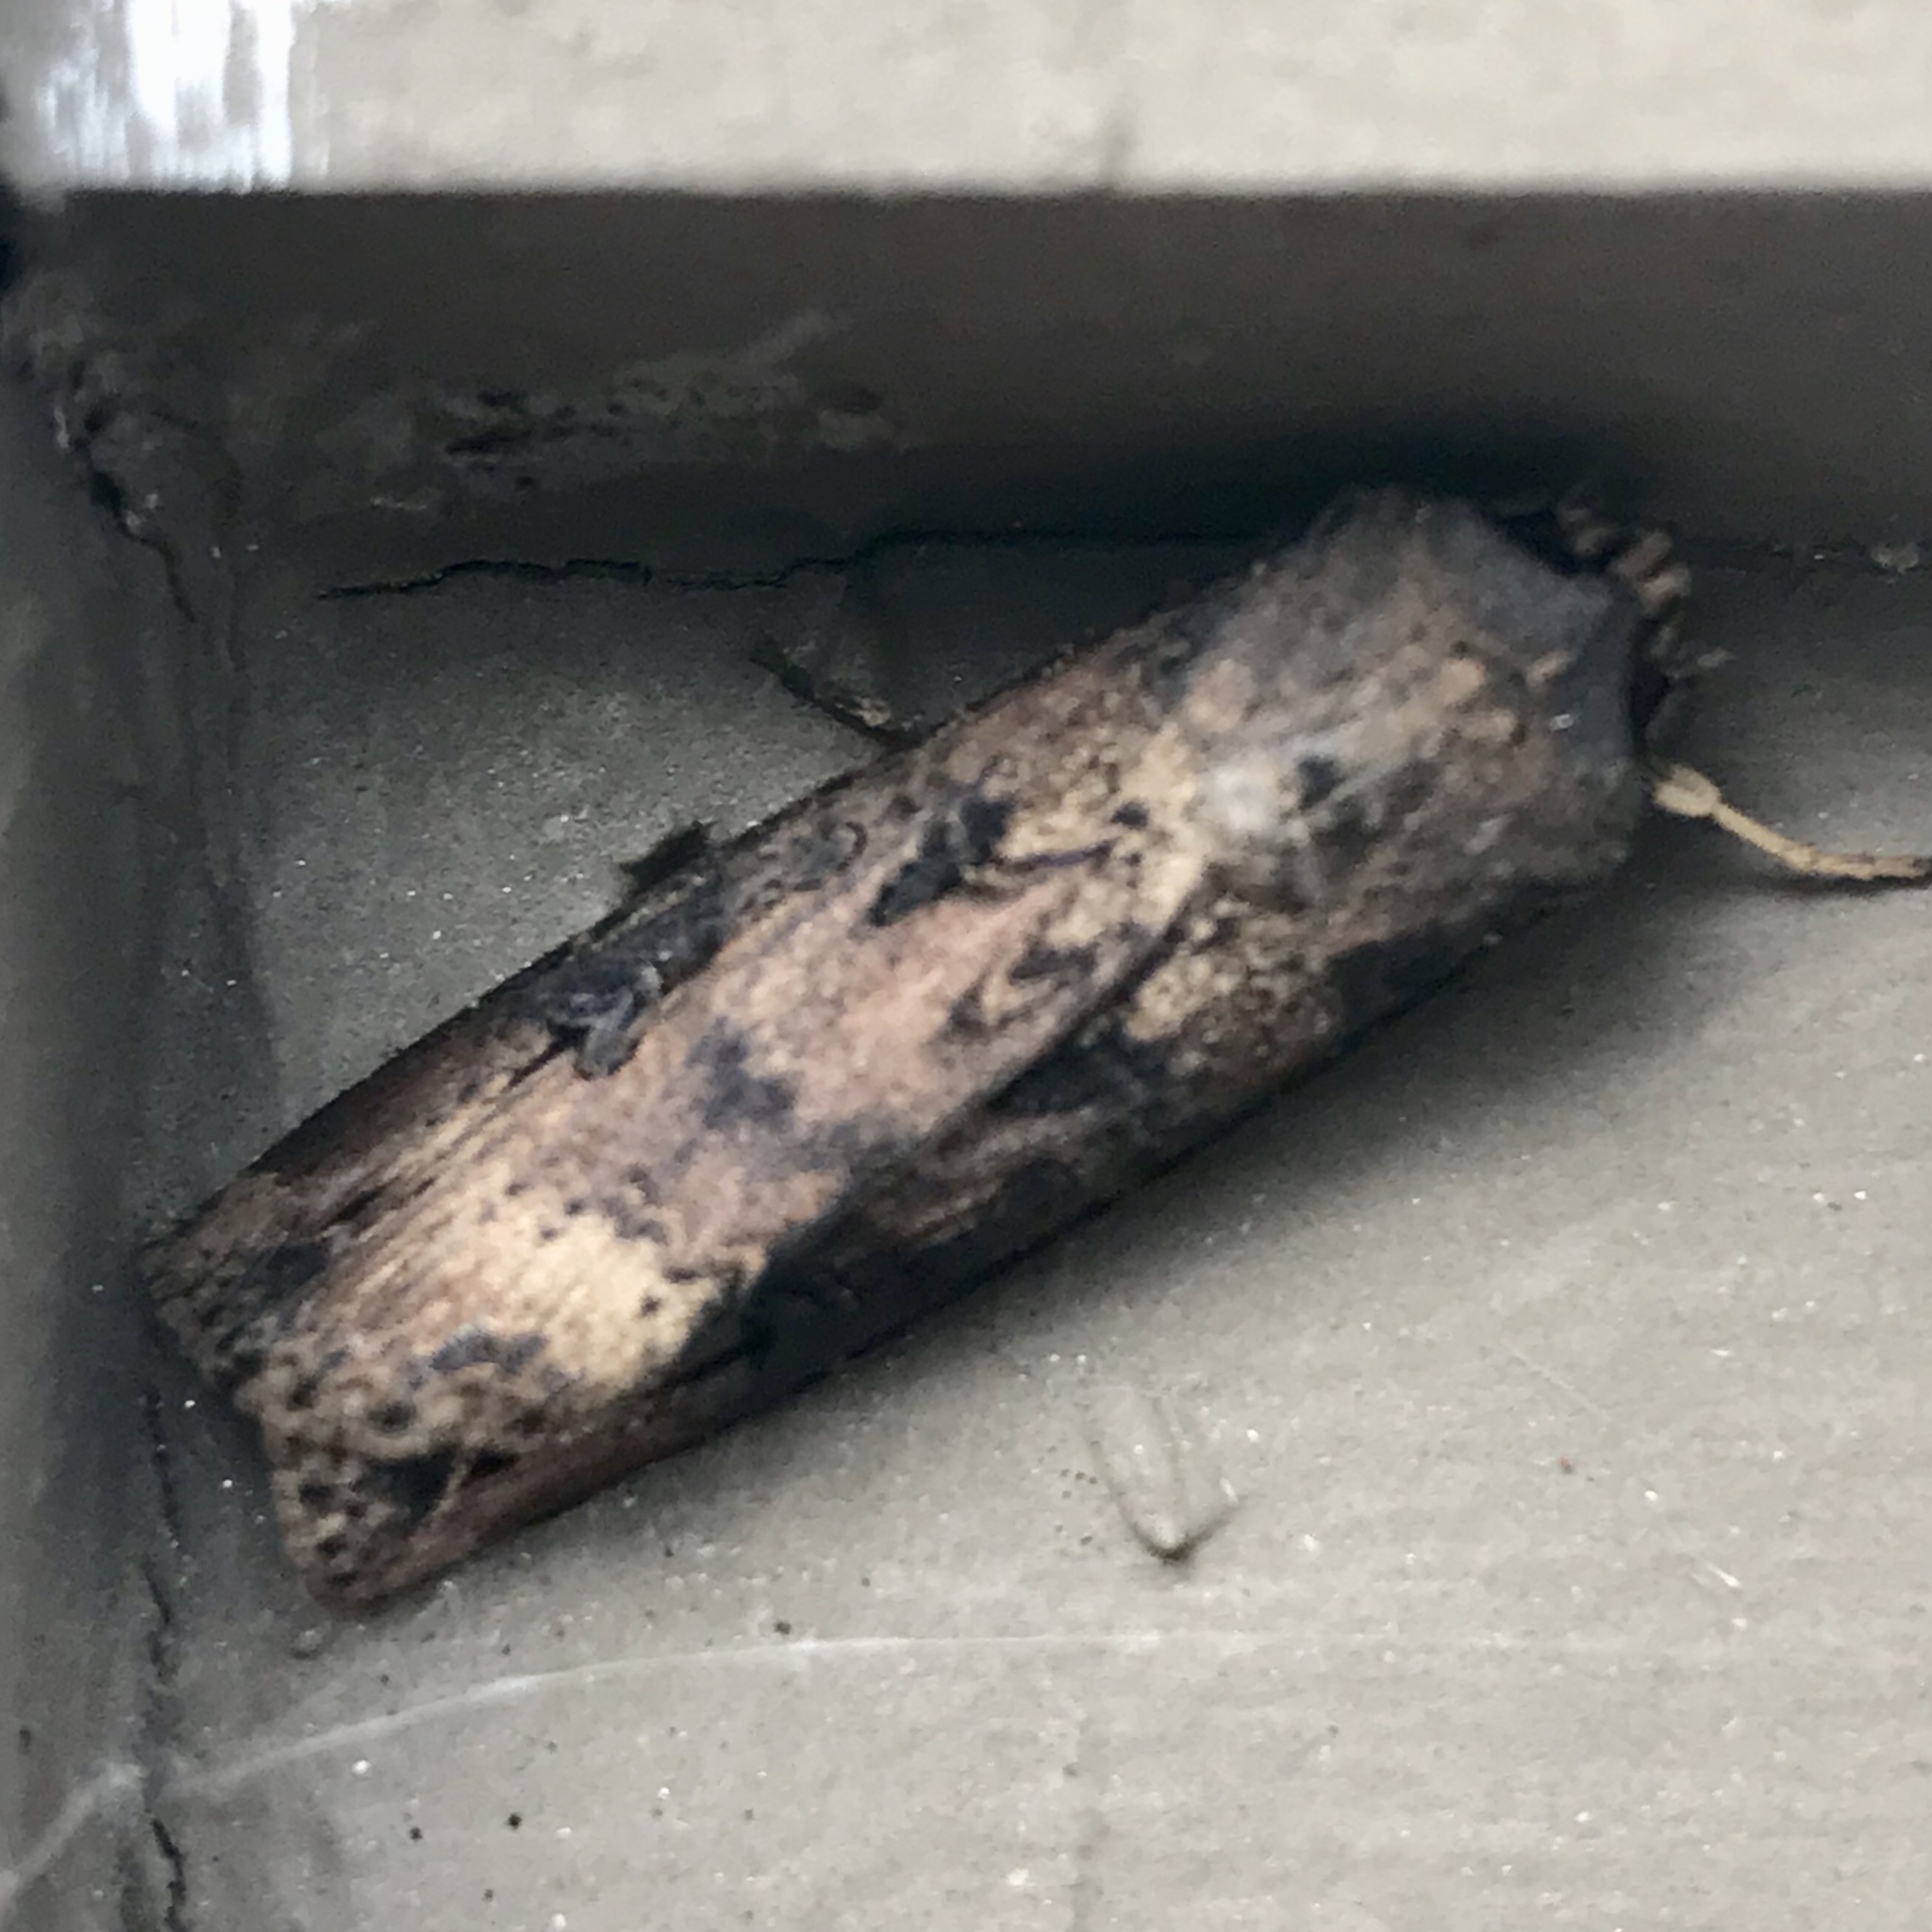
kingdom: Animalia
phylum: Arthropoda
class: Insecta
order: Lepidoptera
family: Noctuidae
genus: Agrotis
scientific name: Agrotis ipsilon
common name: Dark sword-grass
